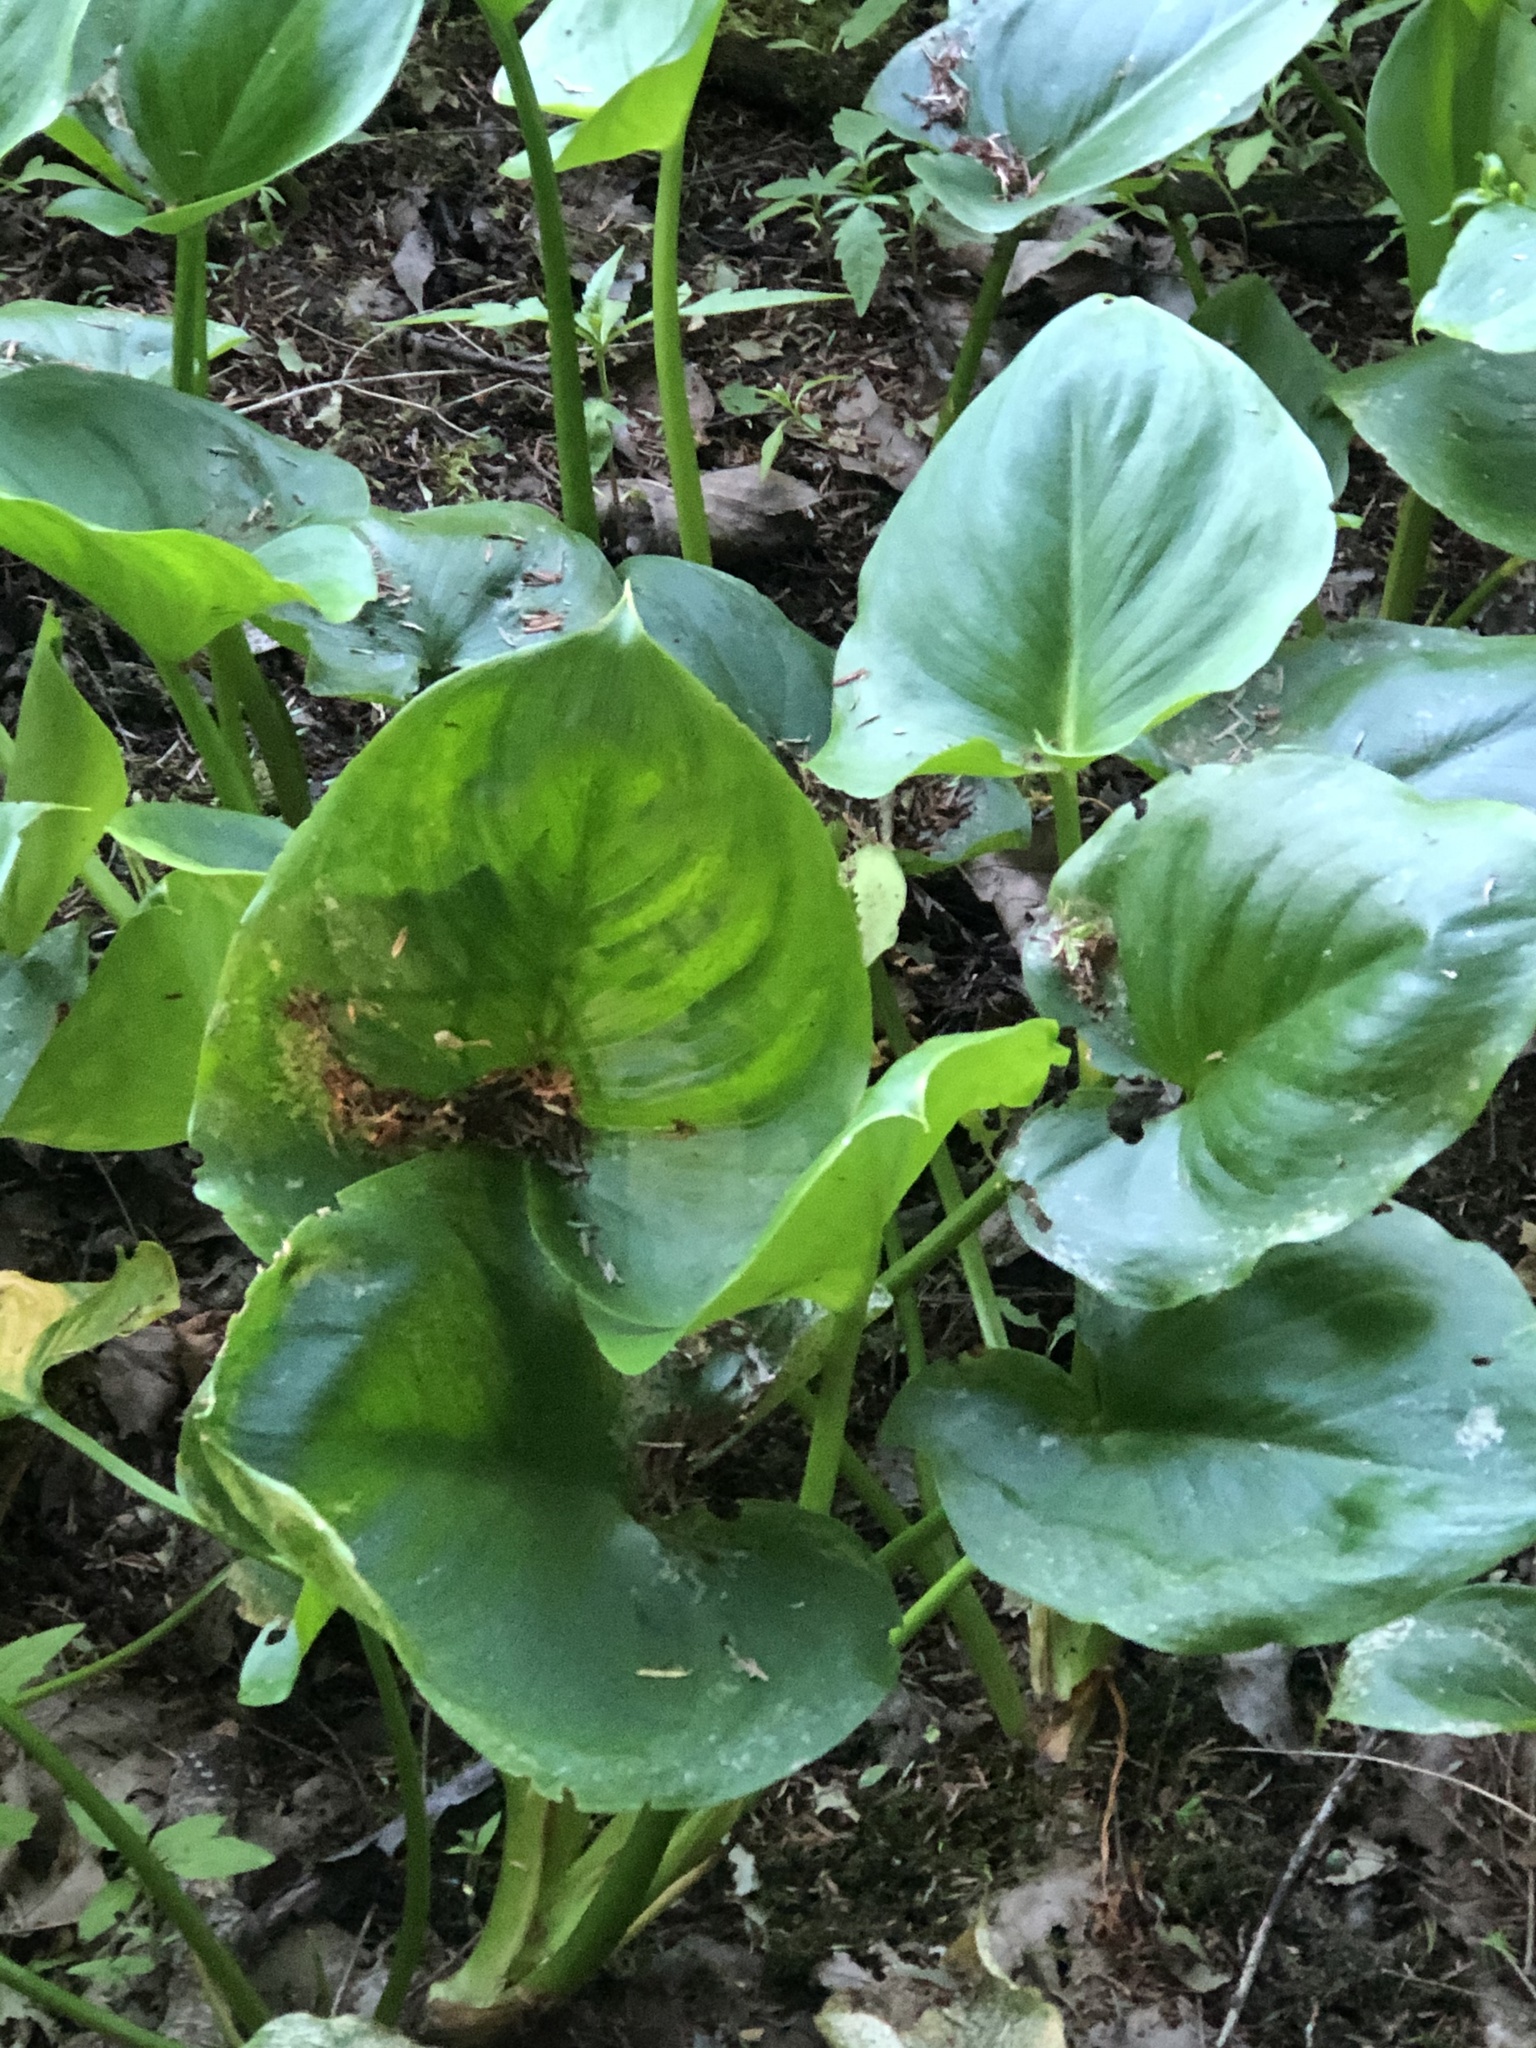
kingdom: Plantae
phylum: Tracheophyta
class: Liliopsida
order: Alismatales
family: Araceae
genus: Calla
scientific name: Calla palustris
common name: Bog arum
